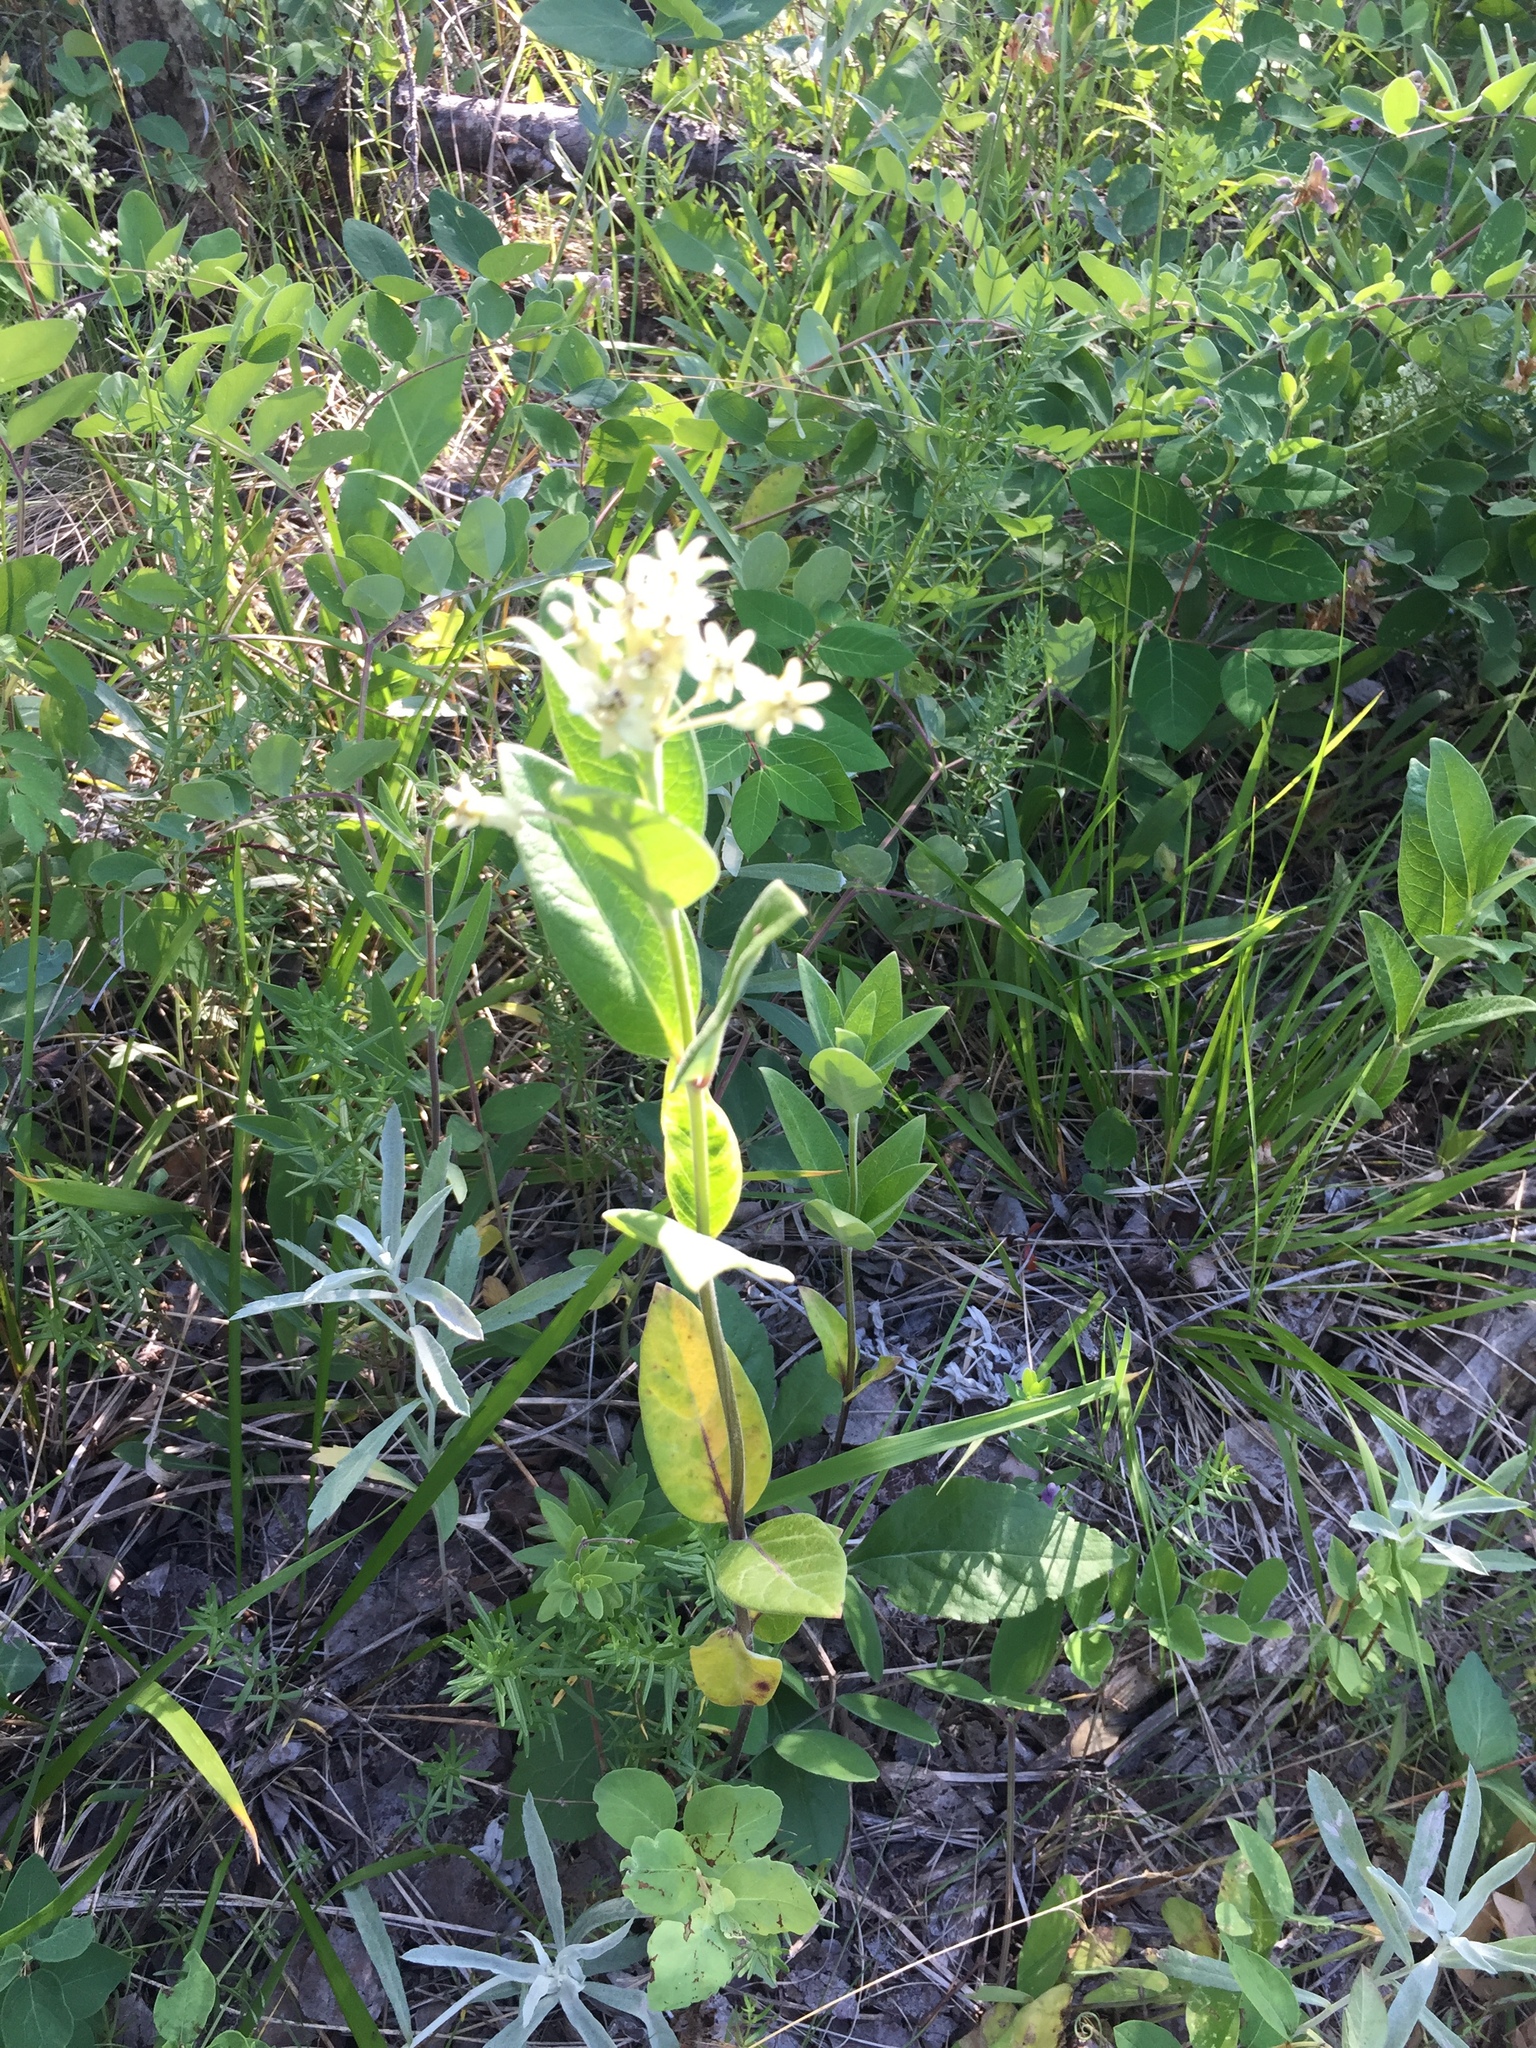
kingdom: Plantae
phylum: Tracheophyta
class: Magnoliopsida
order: Gentianales
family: Apocynaceae
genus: Asclepias
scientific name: Asclepias ovalifolia
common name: Dwarf milkweed
